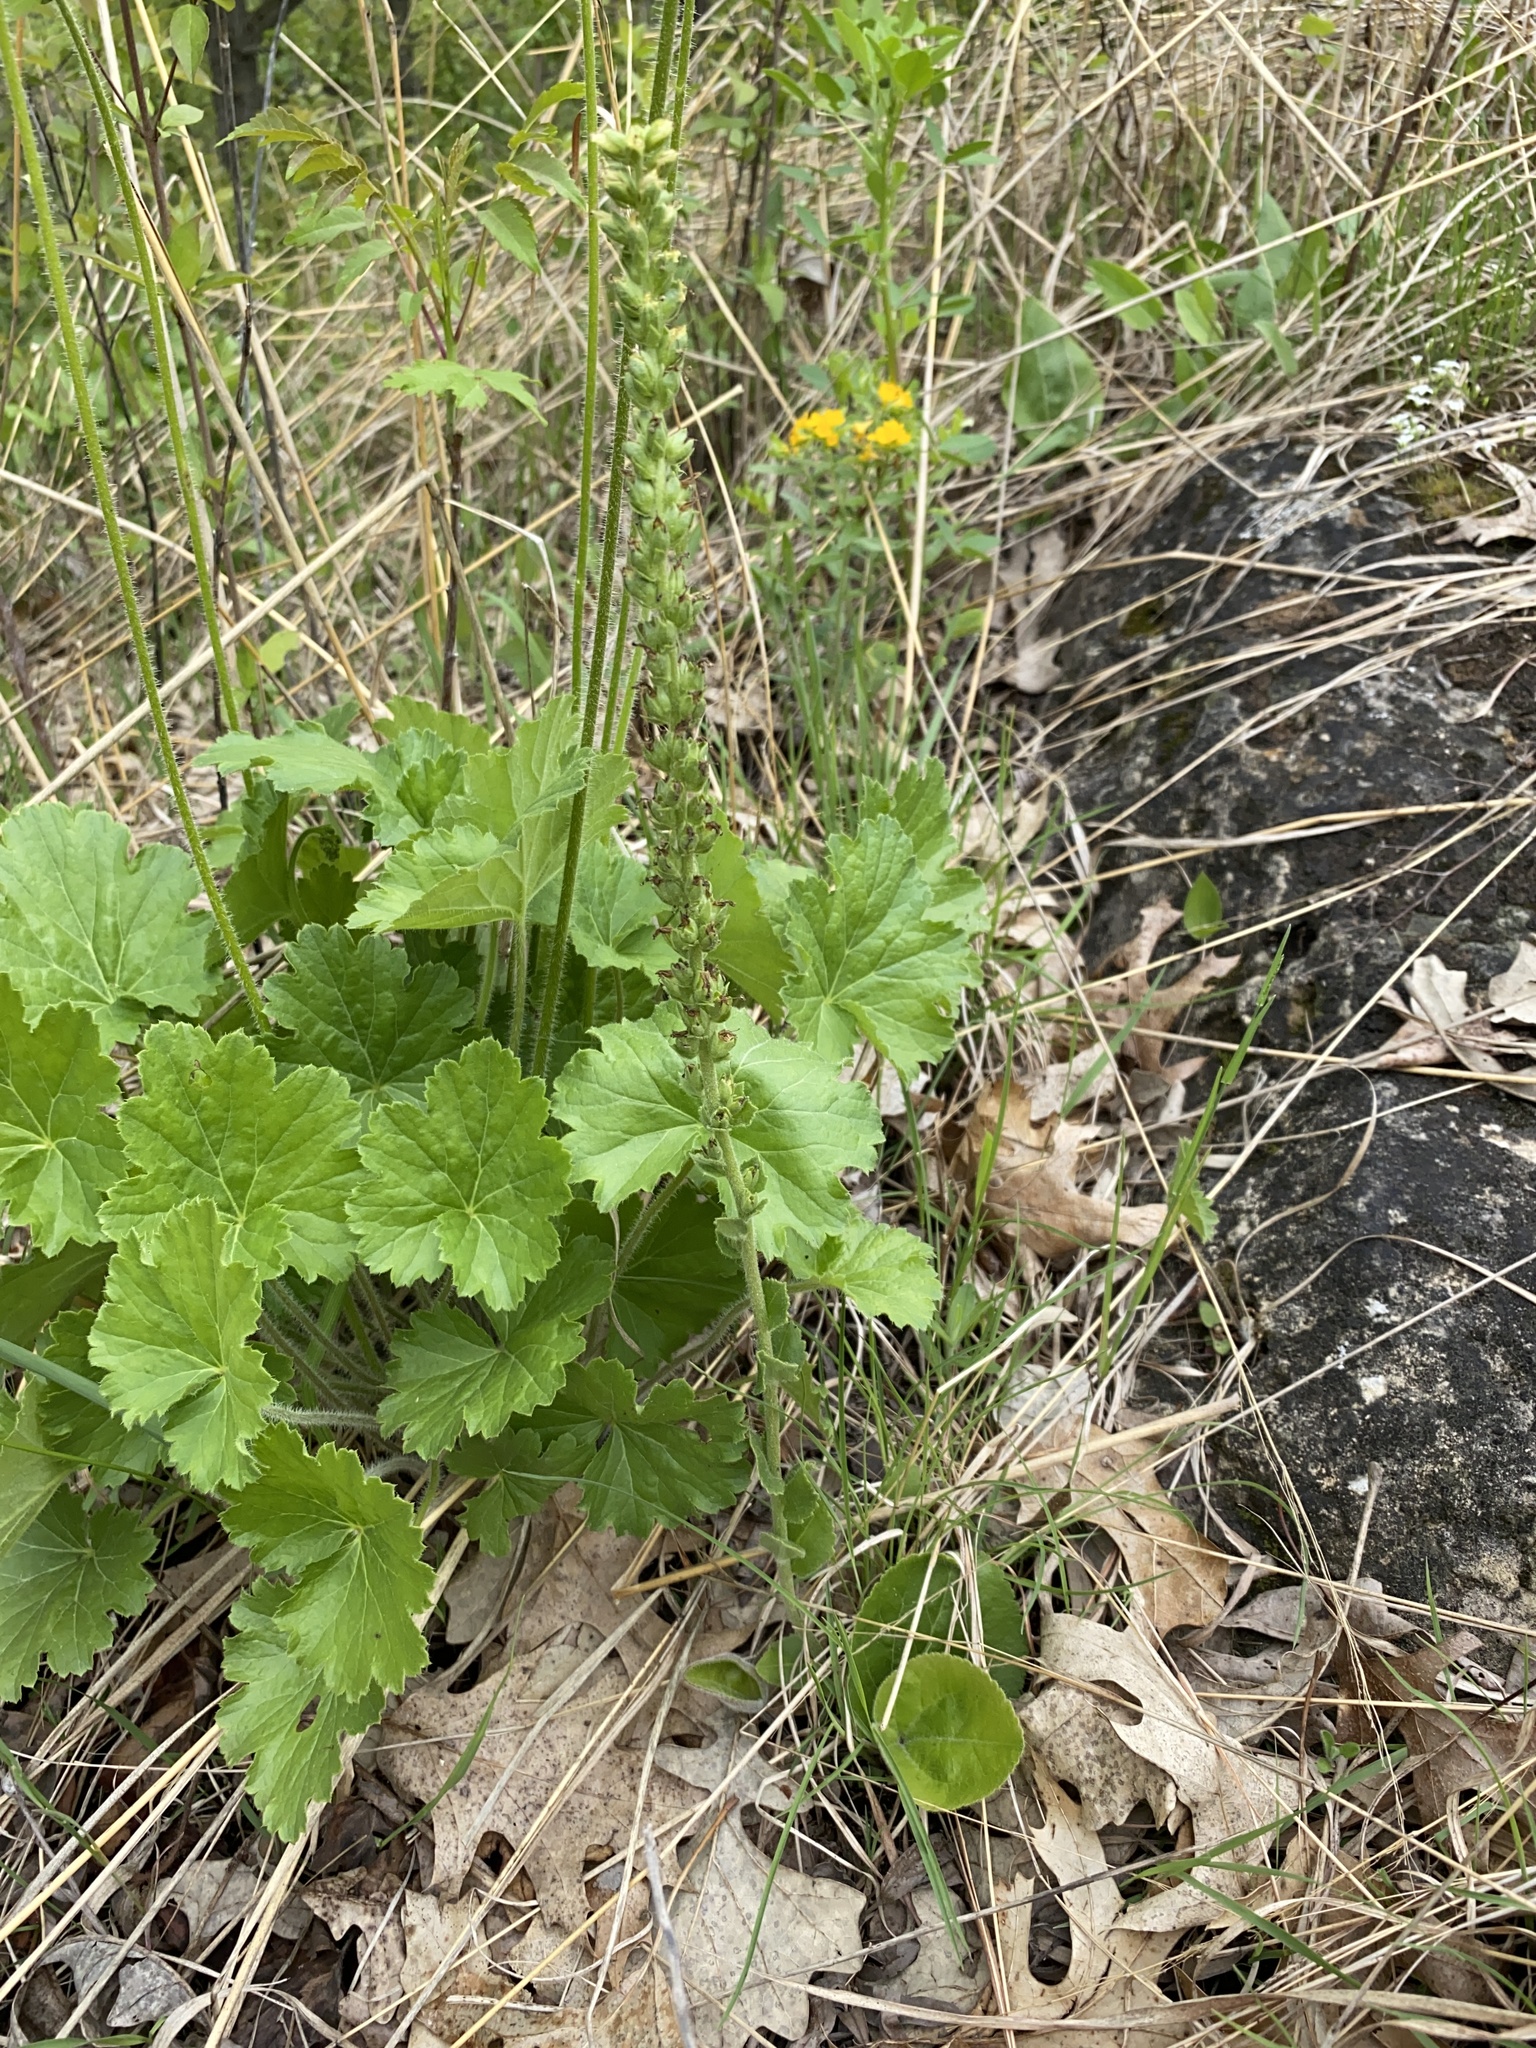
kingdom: Plantae
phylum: Tracheophyta
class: Magnoliopsida
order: Lamiales
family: Plantaginaceae
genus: Synthyris
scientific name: Synthyris bullii
